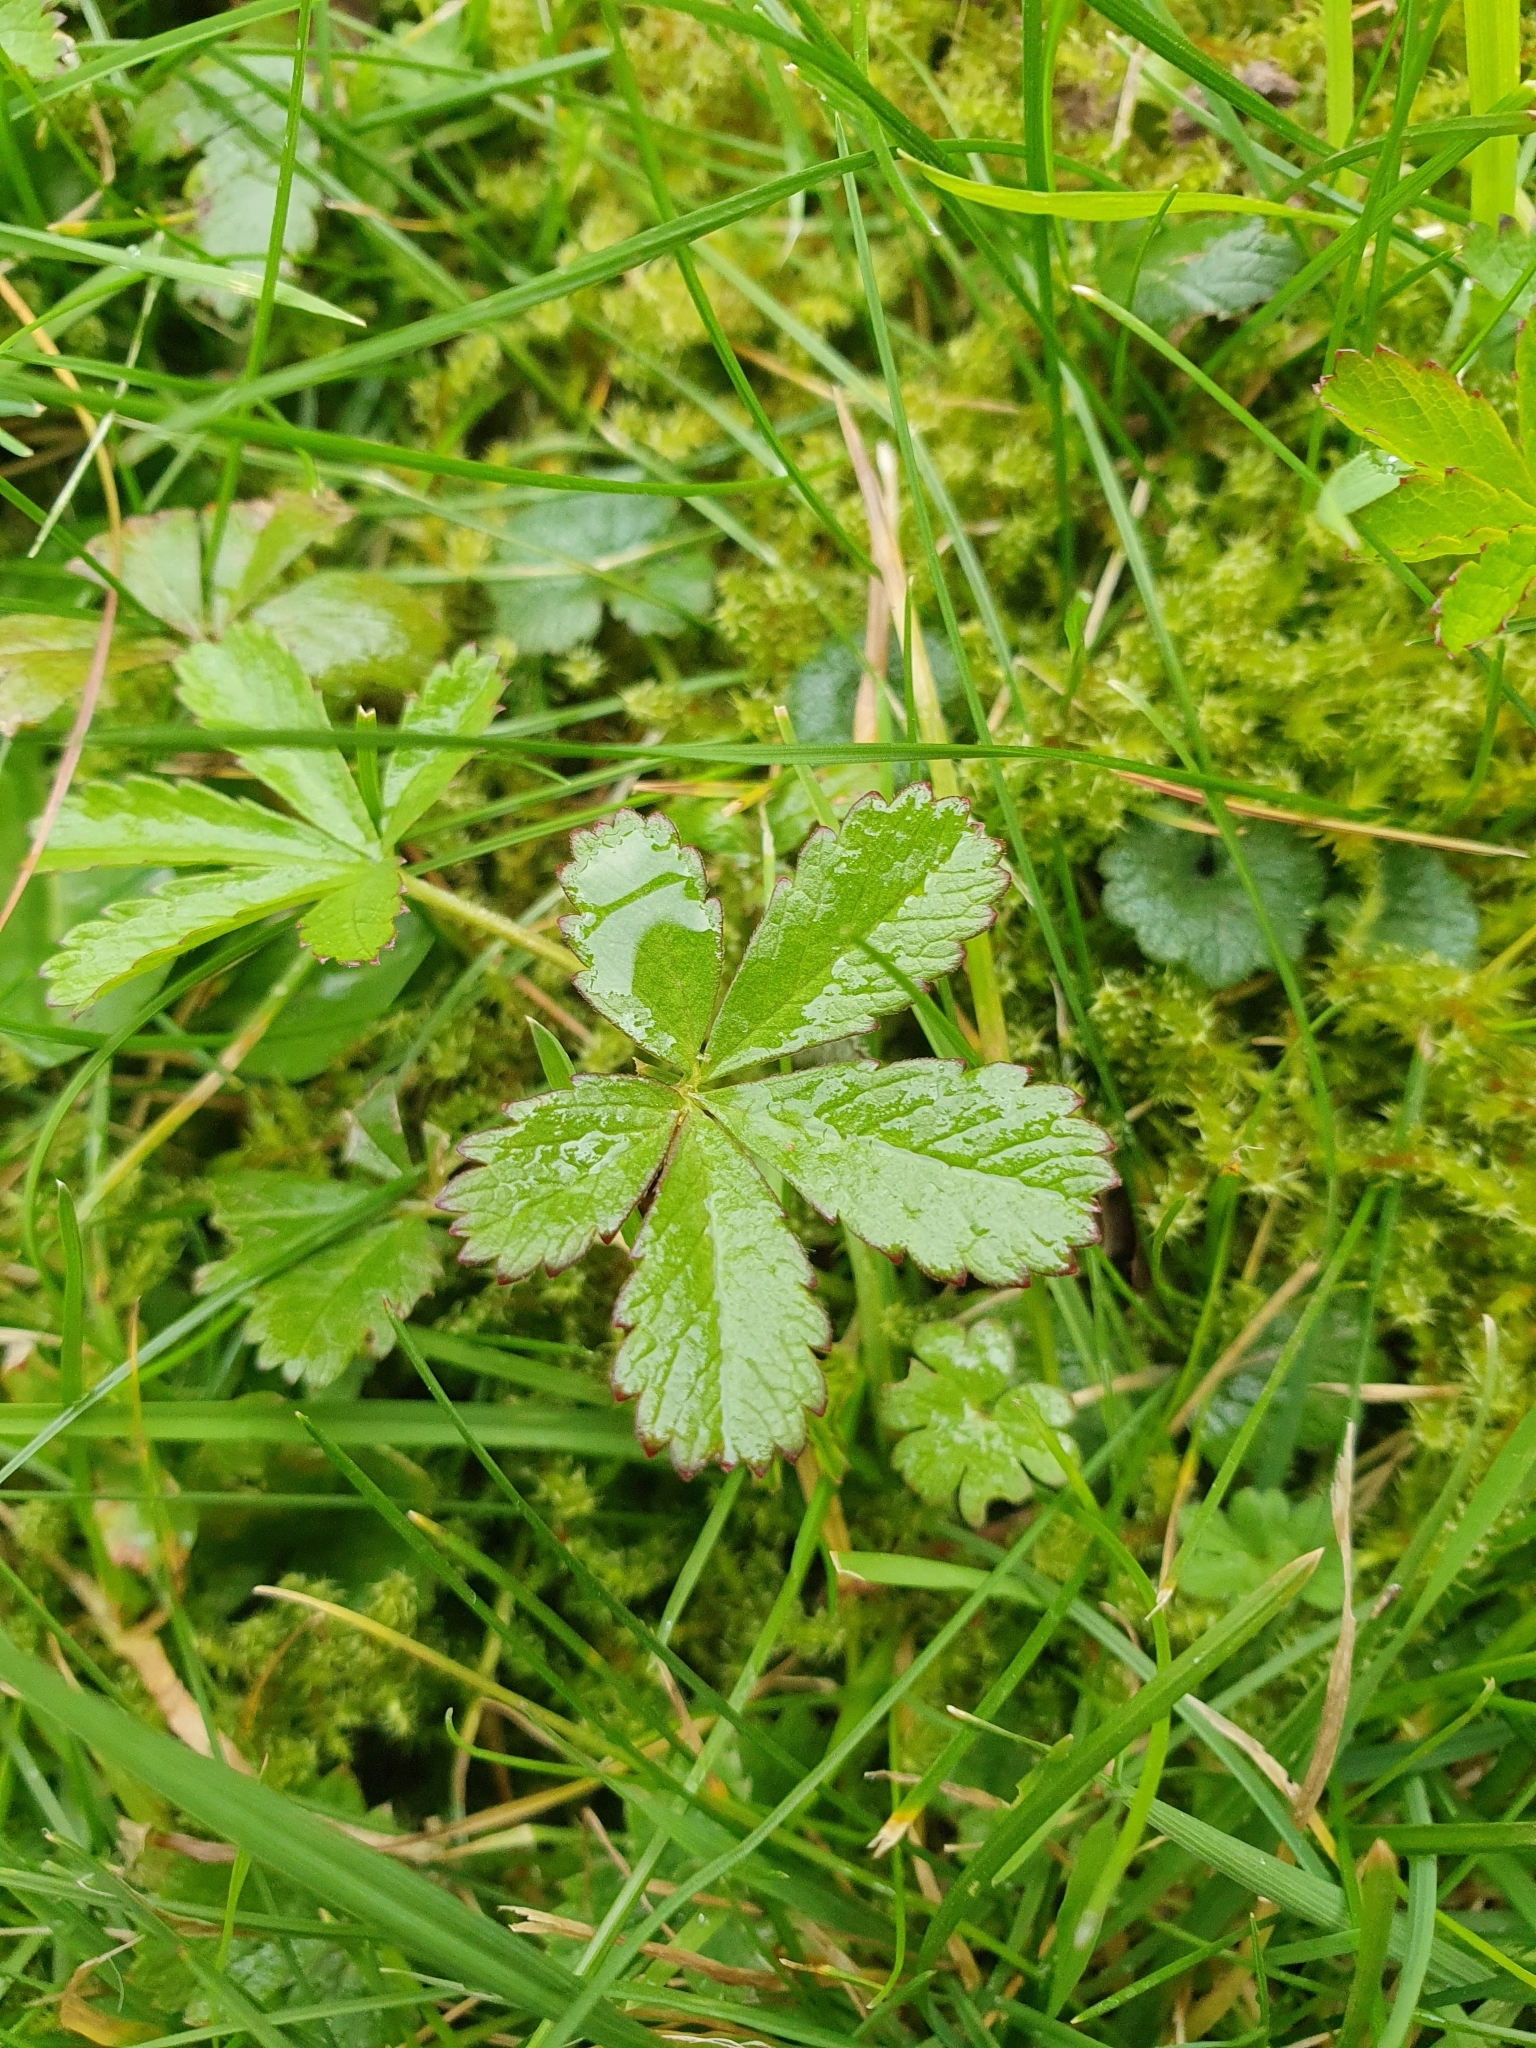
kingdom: Plantae
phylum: Tracheophyta
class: Magnoliopsida
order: Rosales
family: Rosaceae
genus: Potentilla
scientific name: Potentilla reptans
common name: Creeping cinquefoil
